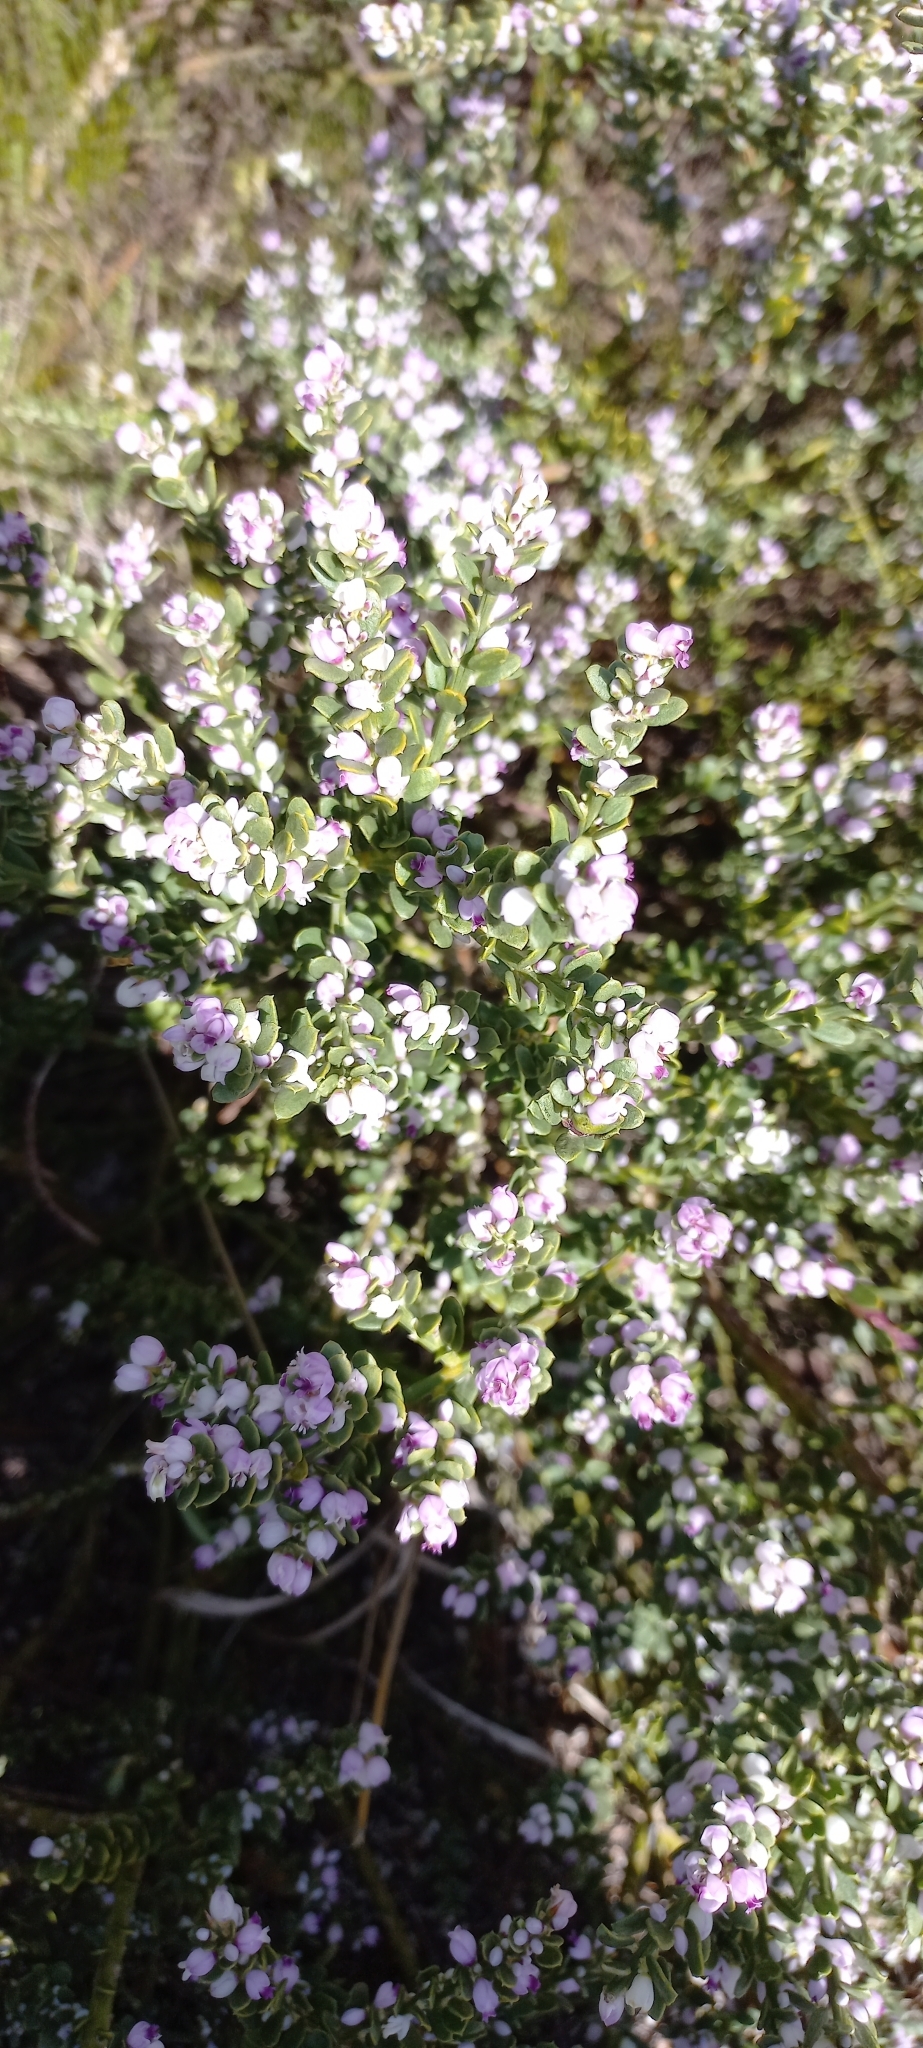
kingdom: Plantae
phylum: Tracheophyta
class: Magnoliopsida
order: Fabales
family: Polygalaceae
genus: Muraltia
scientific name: Muraltia spinosa
